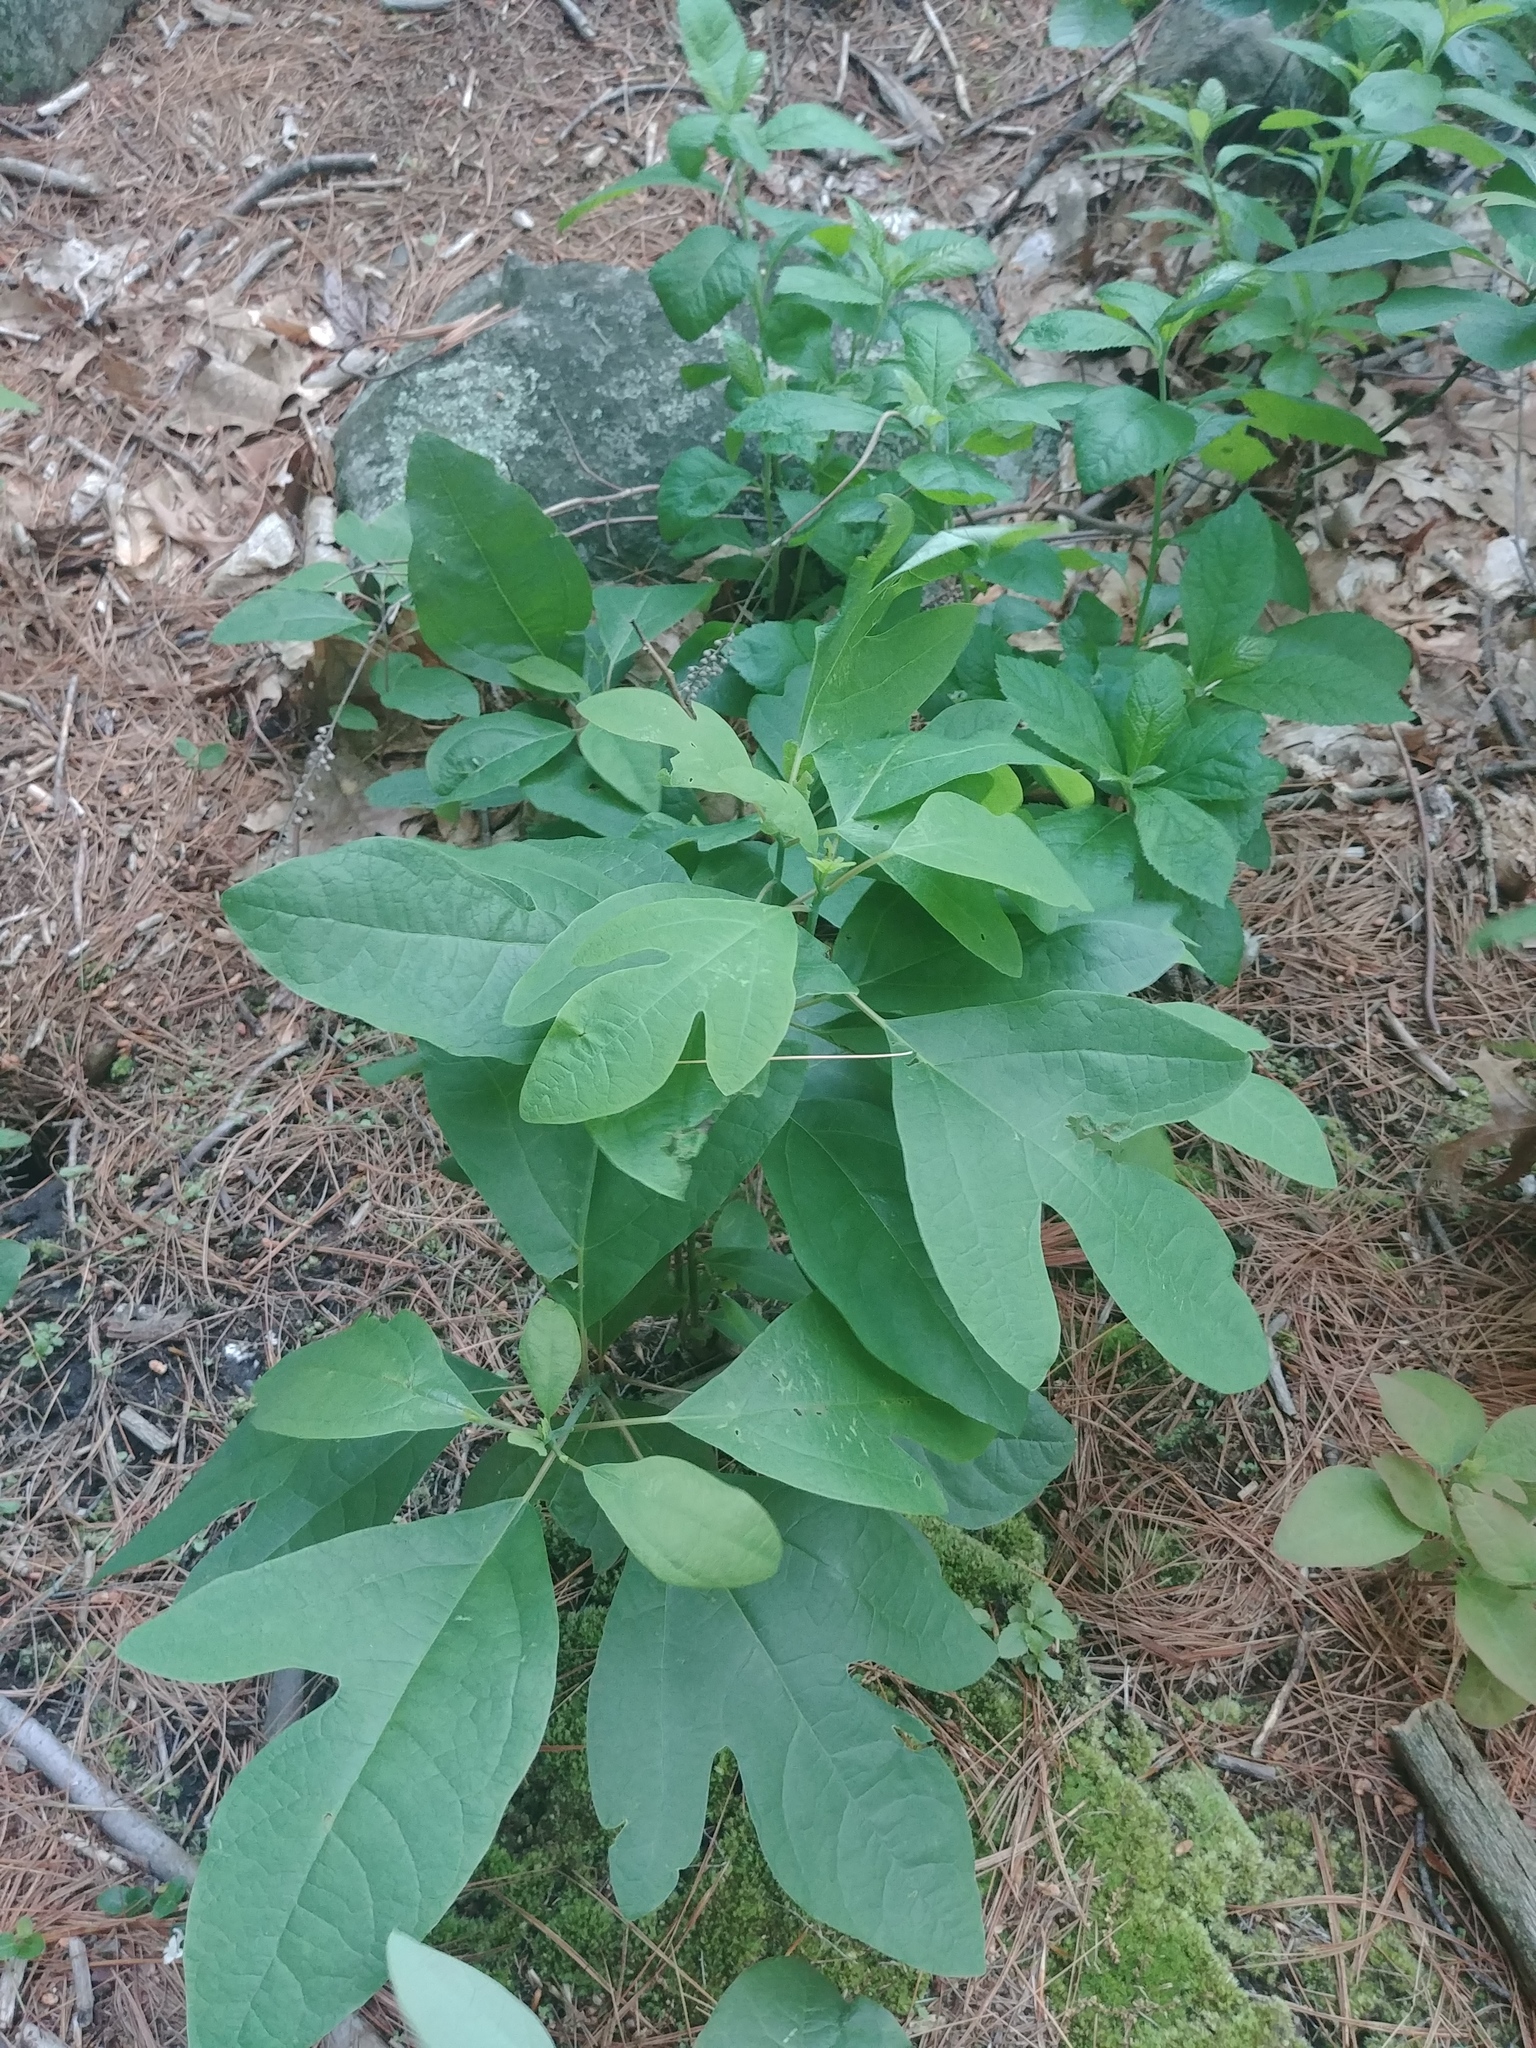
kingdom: Plantae
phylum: Tracheophyta
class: Magnoliopsida
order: Laurales
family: Lauraceae
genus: Sassafras
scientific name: Sassafras albidum
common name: Sassafras
